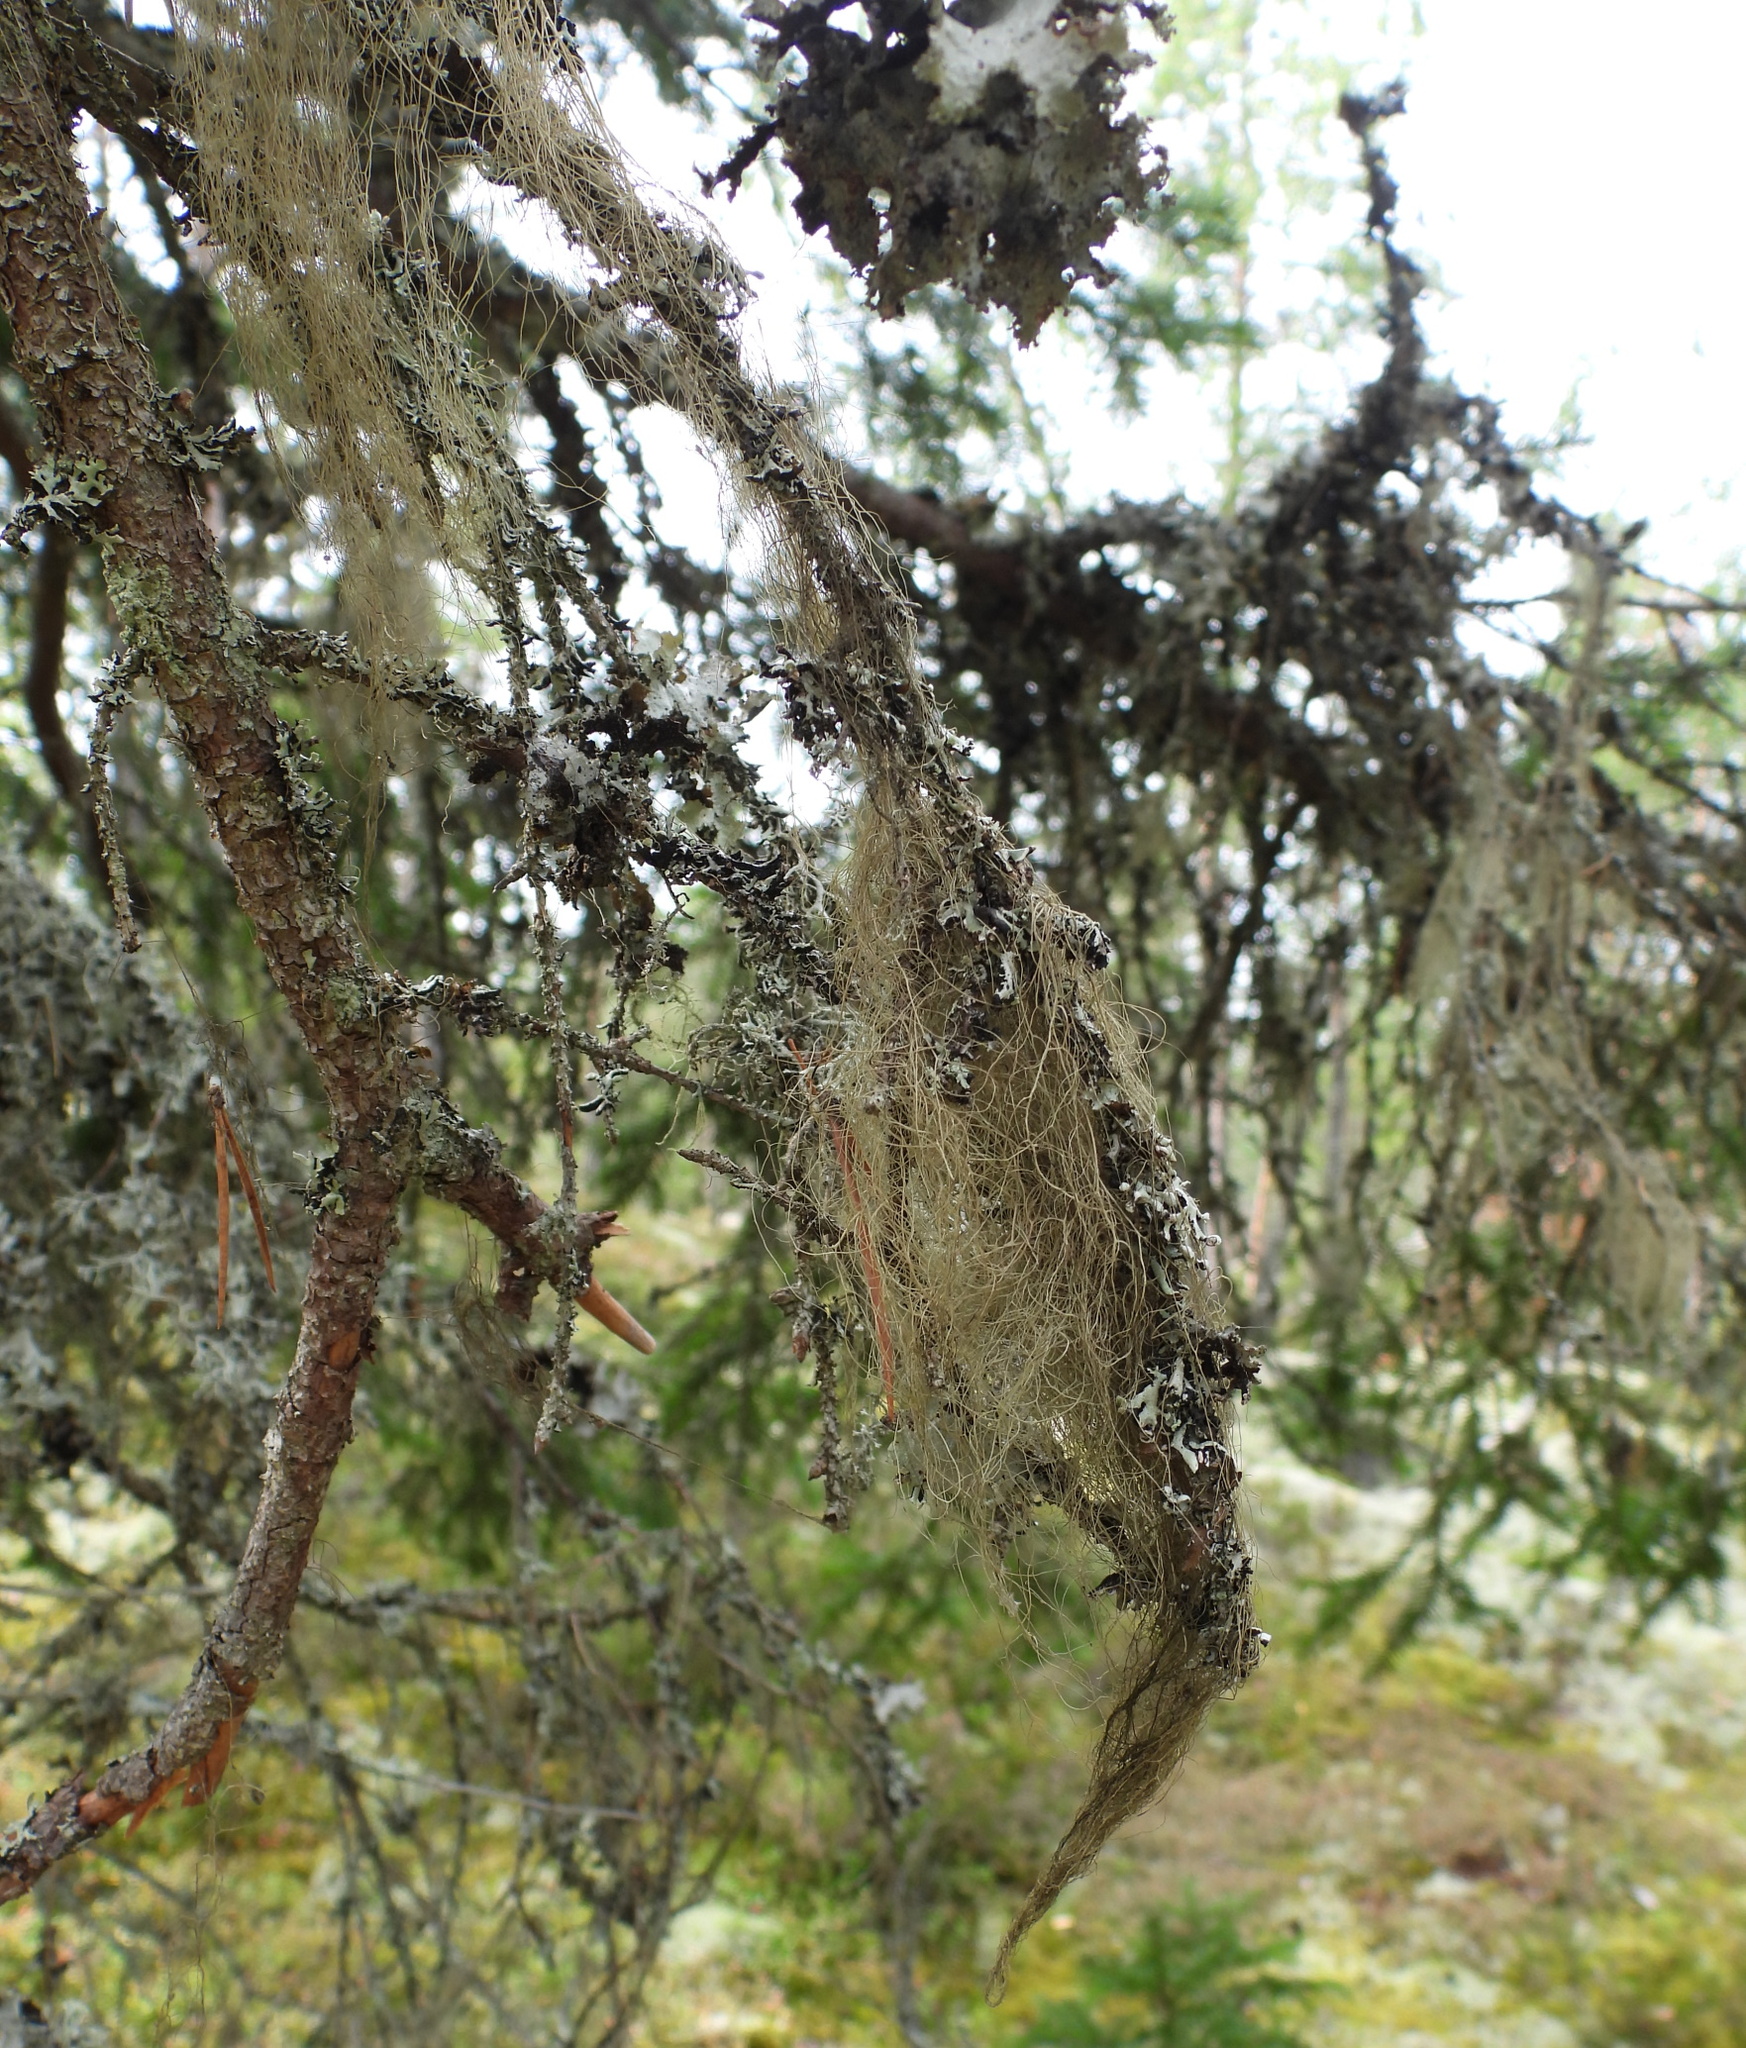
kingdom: Fungi
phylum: Ascomycota
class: Lecanoromycetes
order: Lecanorales
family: Parmeliaceae
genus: Bryoria
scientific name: Bryoria fuscescens
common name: Pale-footed horsehair lichen
